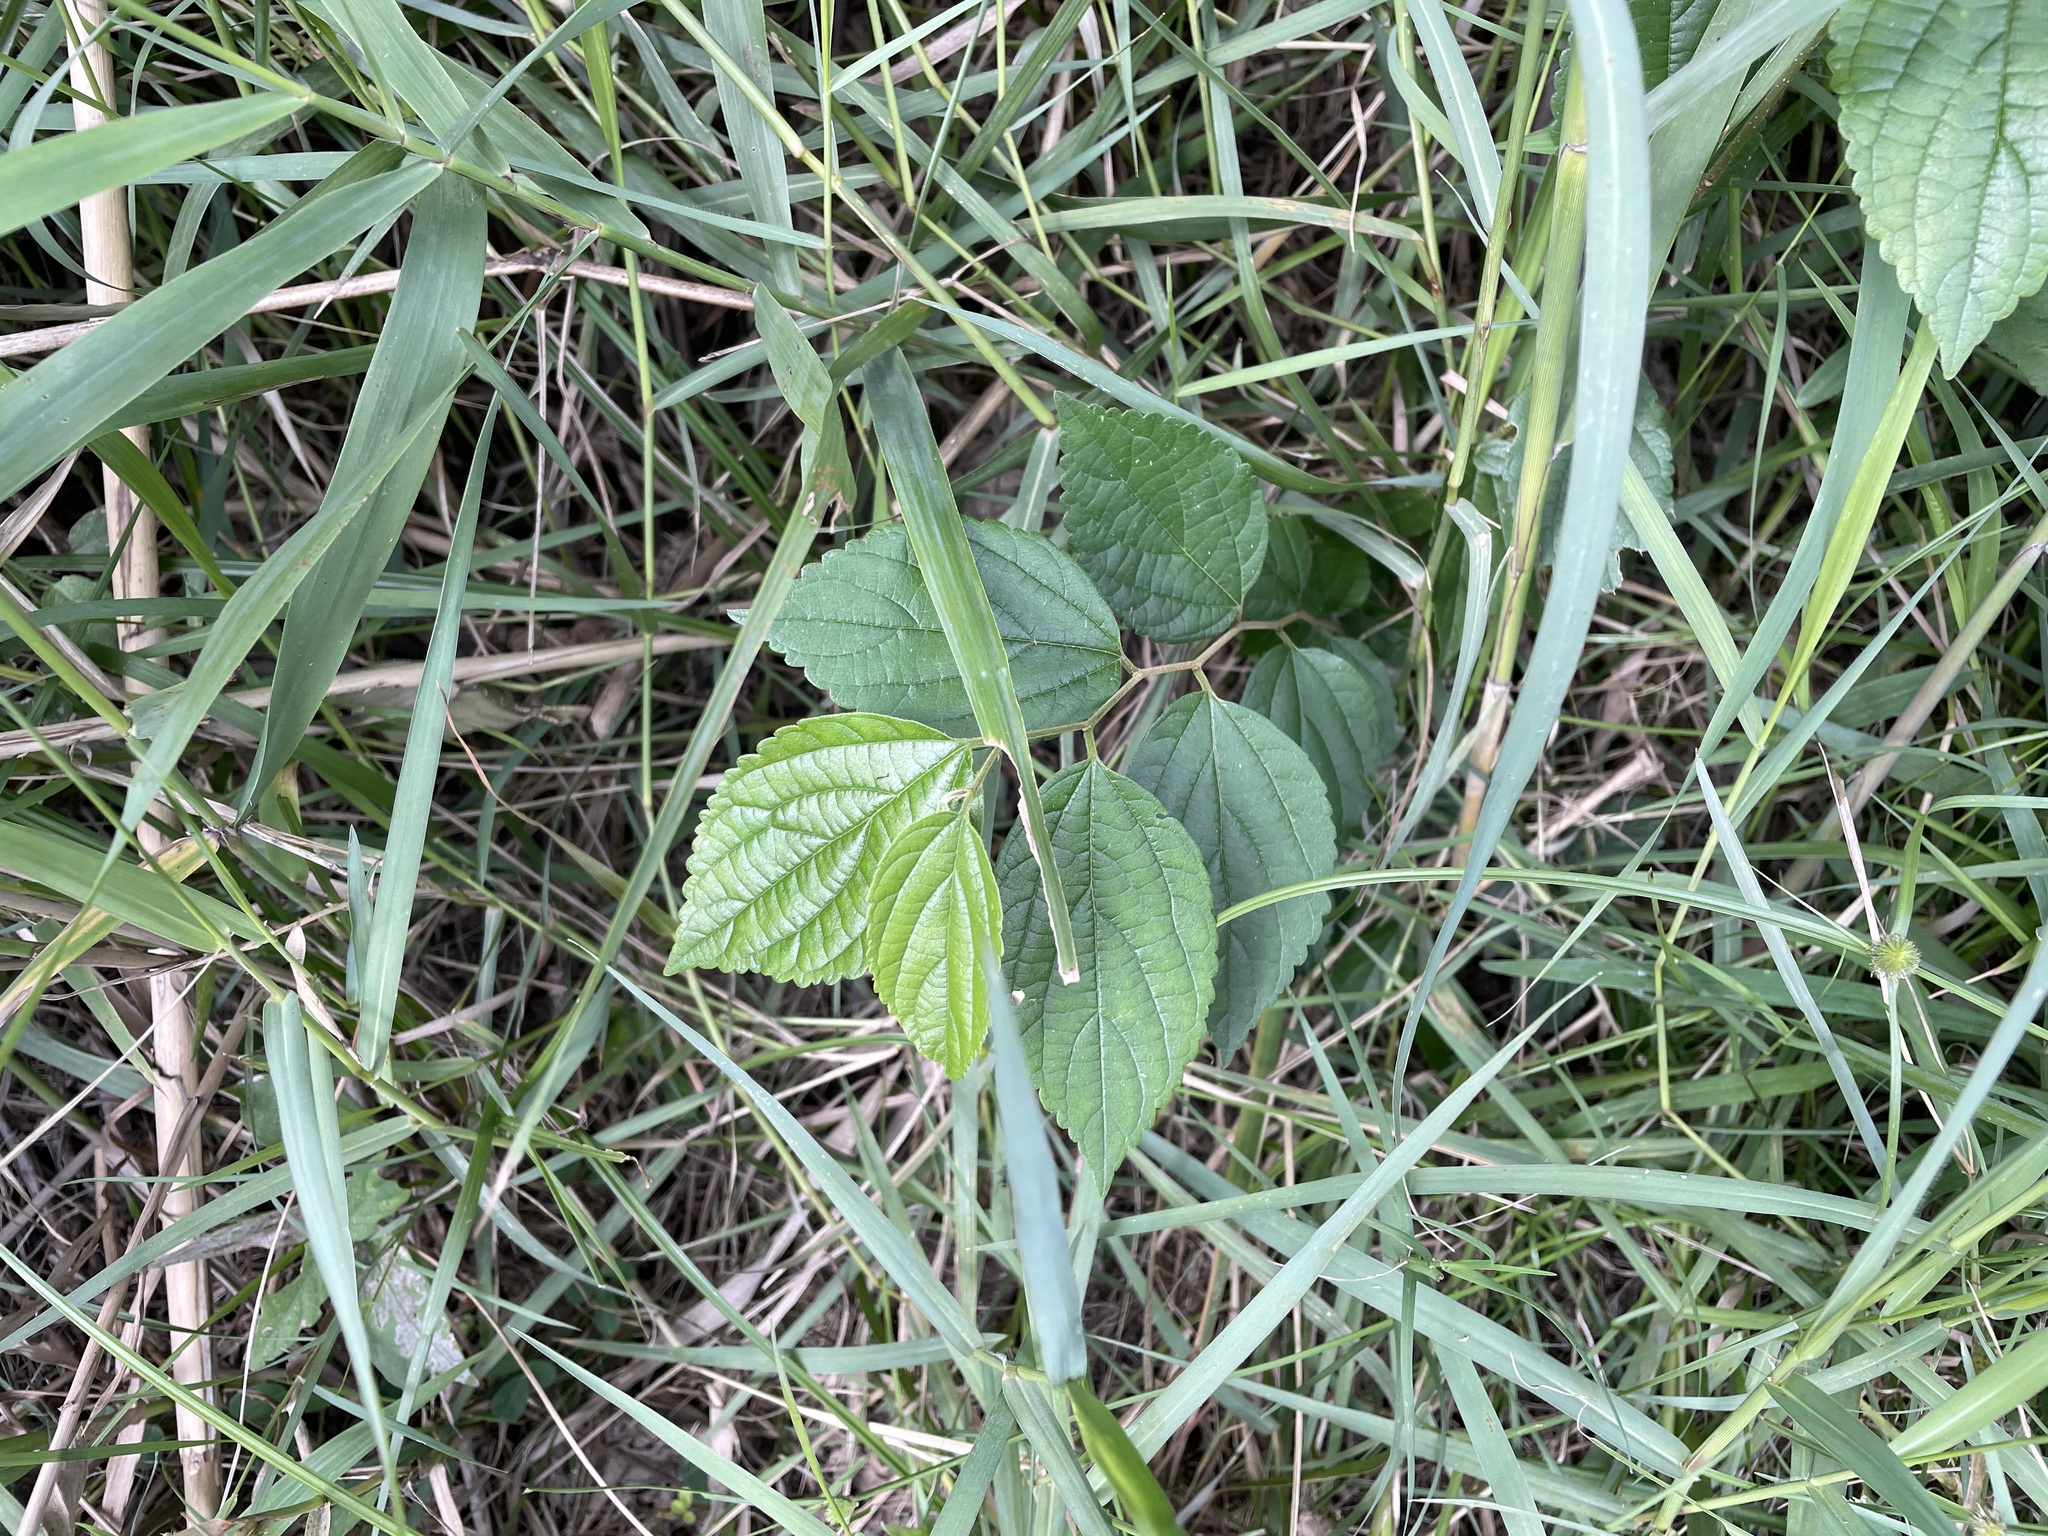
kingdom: Plantae
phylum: Tracheophyta
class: Magnoliopsida
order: Rosales
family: Cannabaceae
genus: Celtis
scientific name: Celtis sinensis
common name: Chinese hackberry
